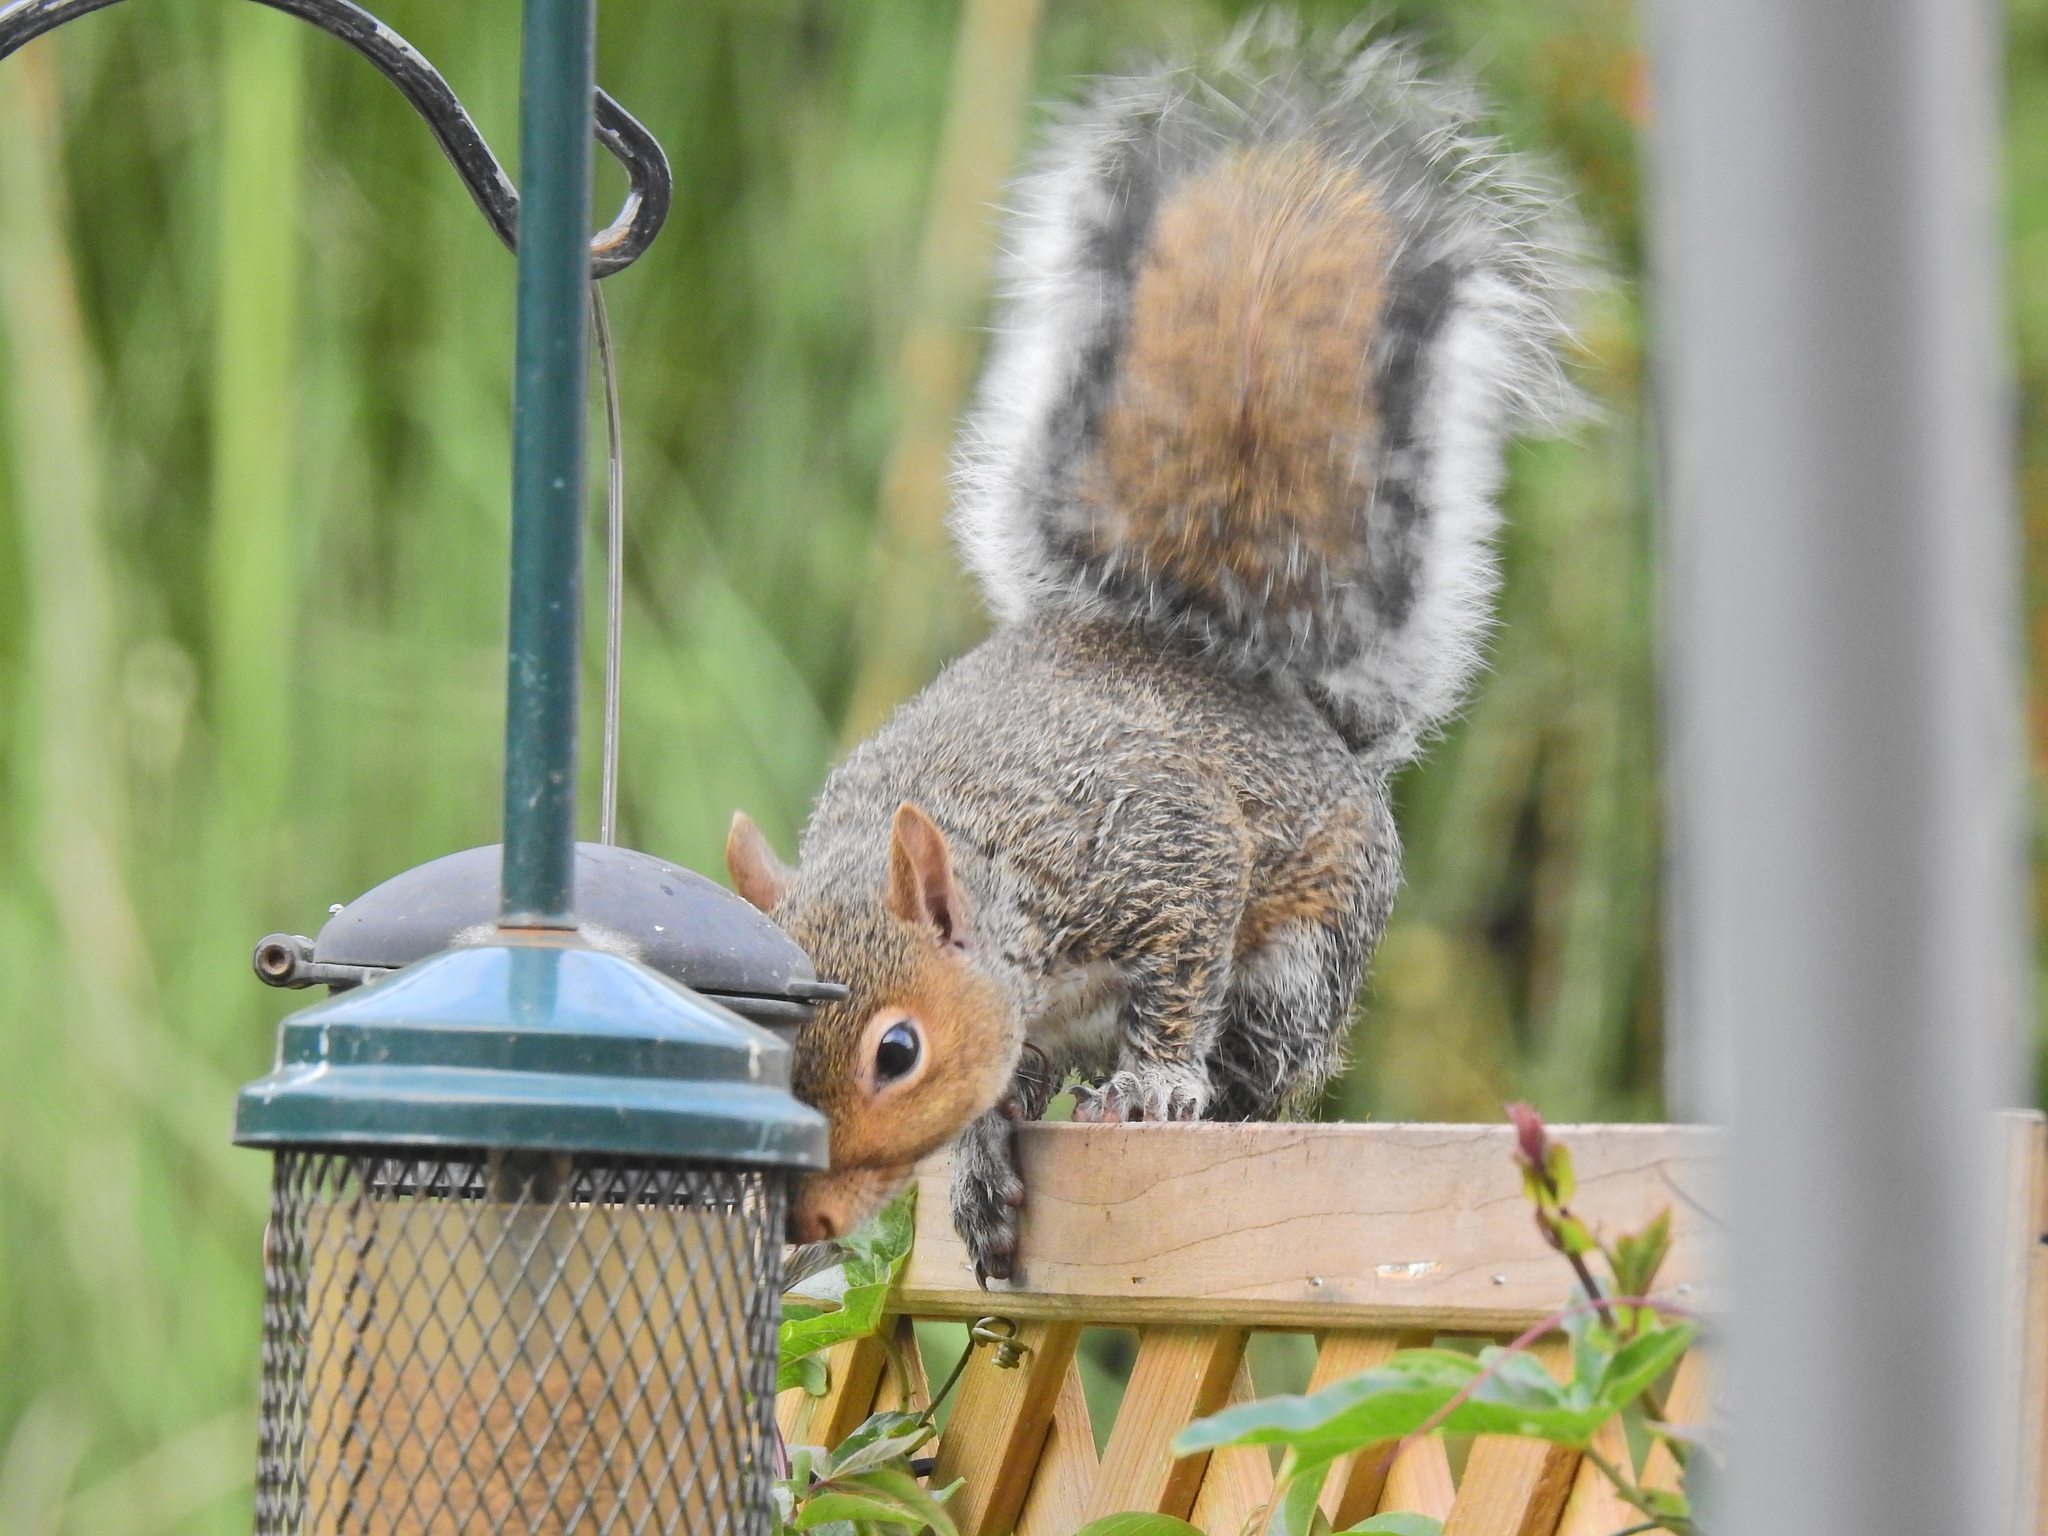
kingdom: Animalia
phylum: Chordata
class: Mammalia
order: Rodentia
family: Sciuridae
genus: Sciurus
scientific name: Sciurus carolinensis
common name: Eastern gray squirrel
